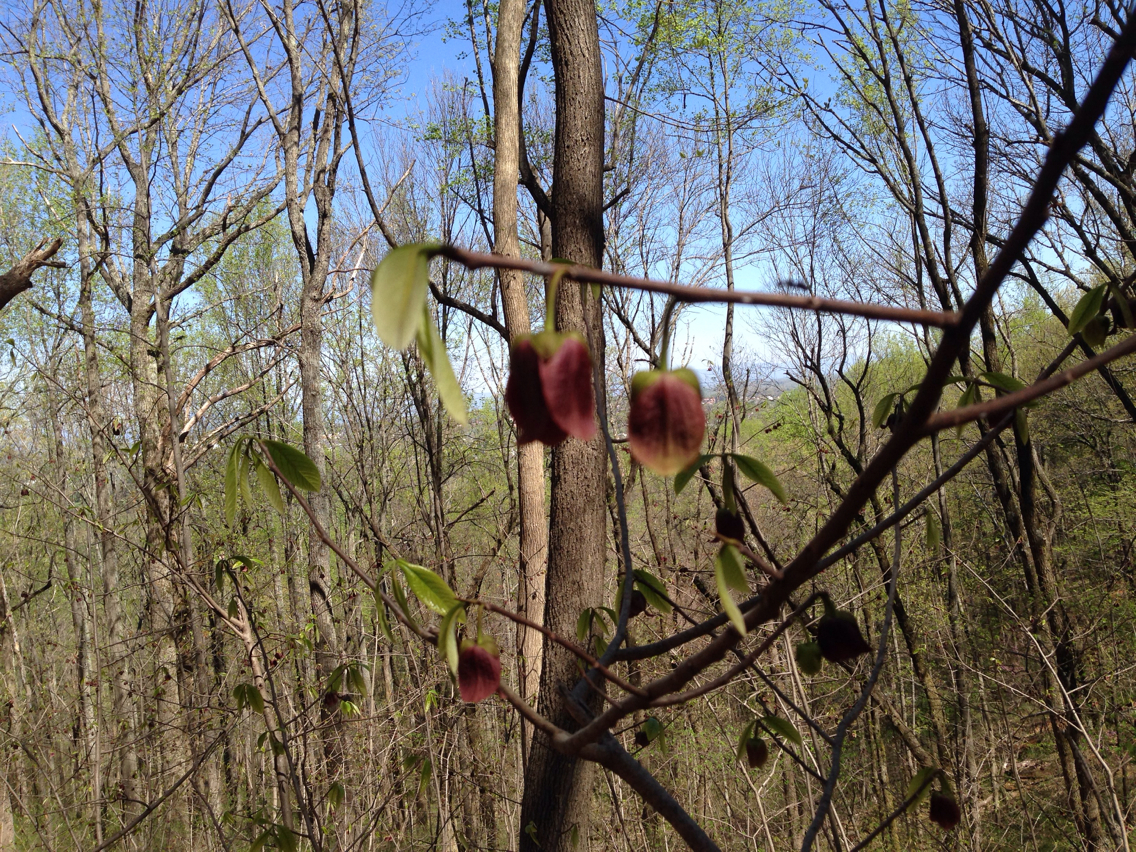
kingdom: Plantae
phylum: Tracheophyta
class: Magnoliopsida
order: Magnoliales
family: Annonaceae
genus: Asimina
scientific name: Asimina triloba
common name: Dog-banana
